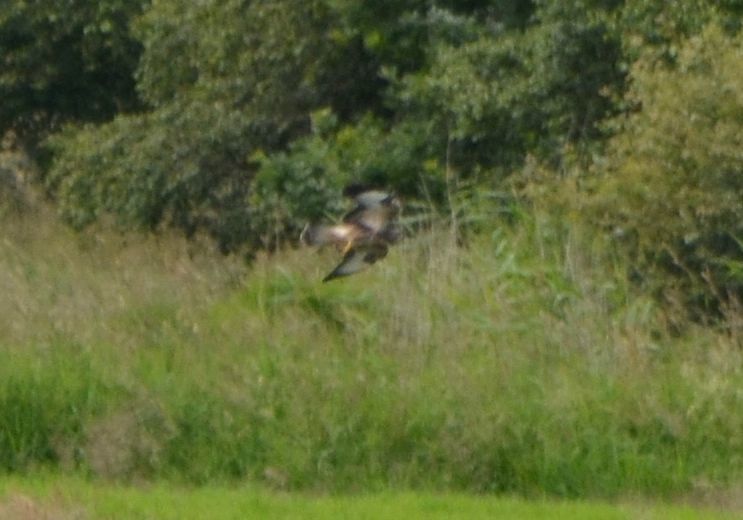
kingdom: Animalia
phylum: Chordata
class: Aves
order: Accipitriformes
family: Accipitridae
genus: Buteo
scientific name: Buteo buteo
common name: Common buzzard
